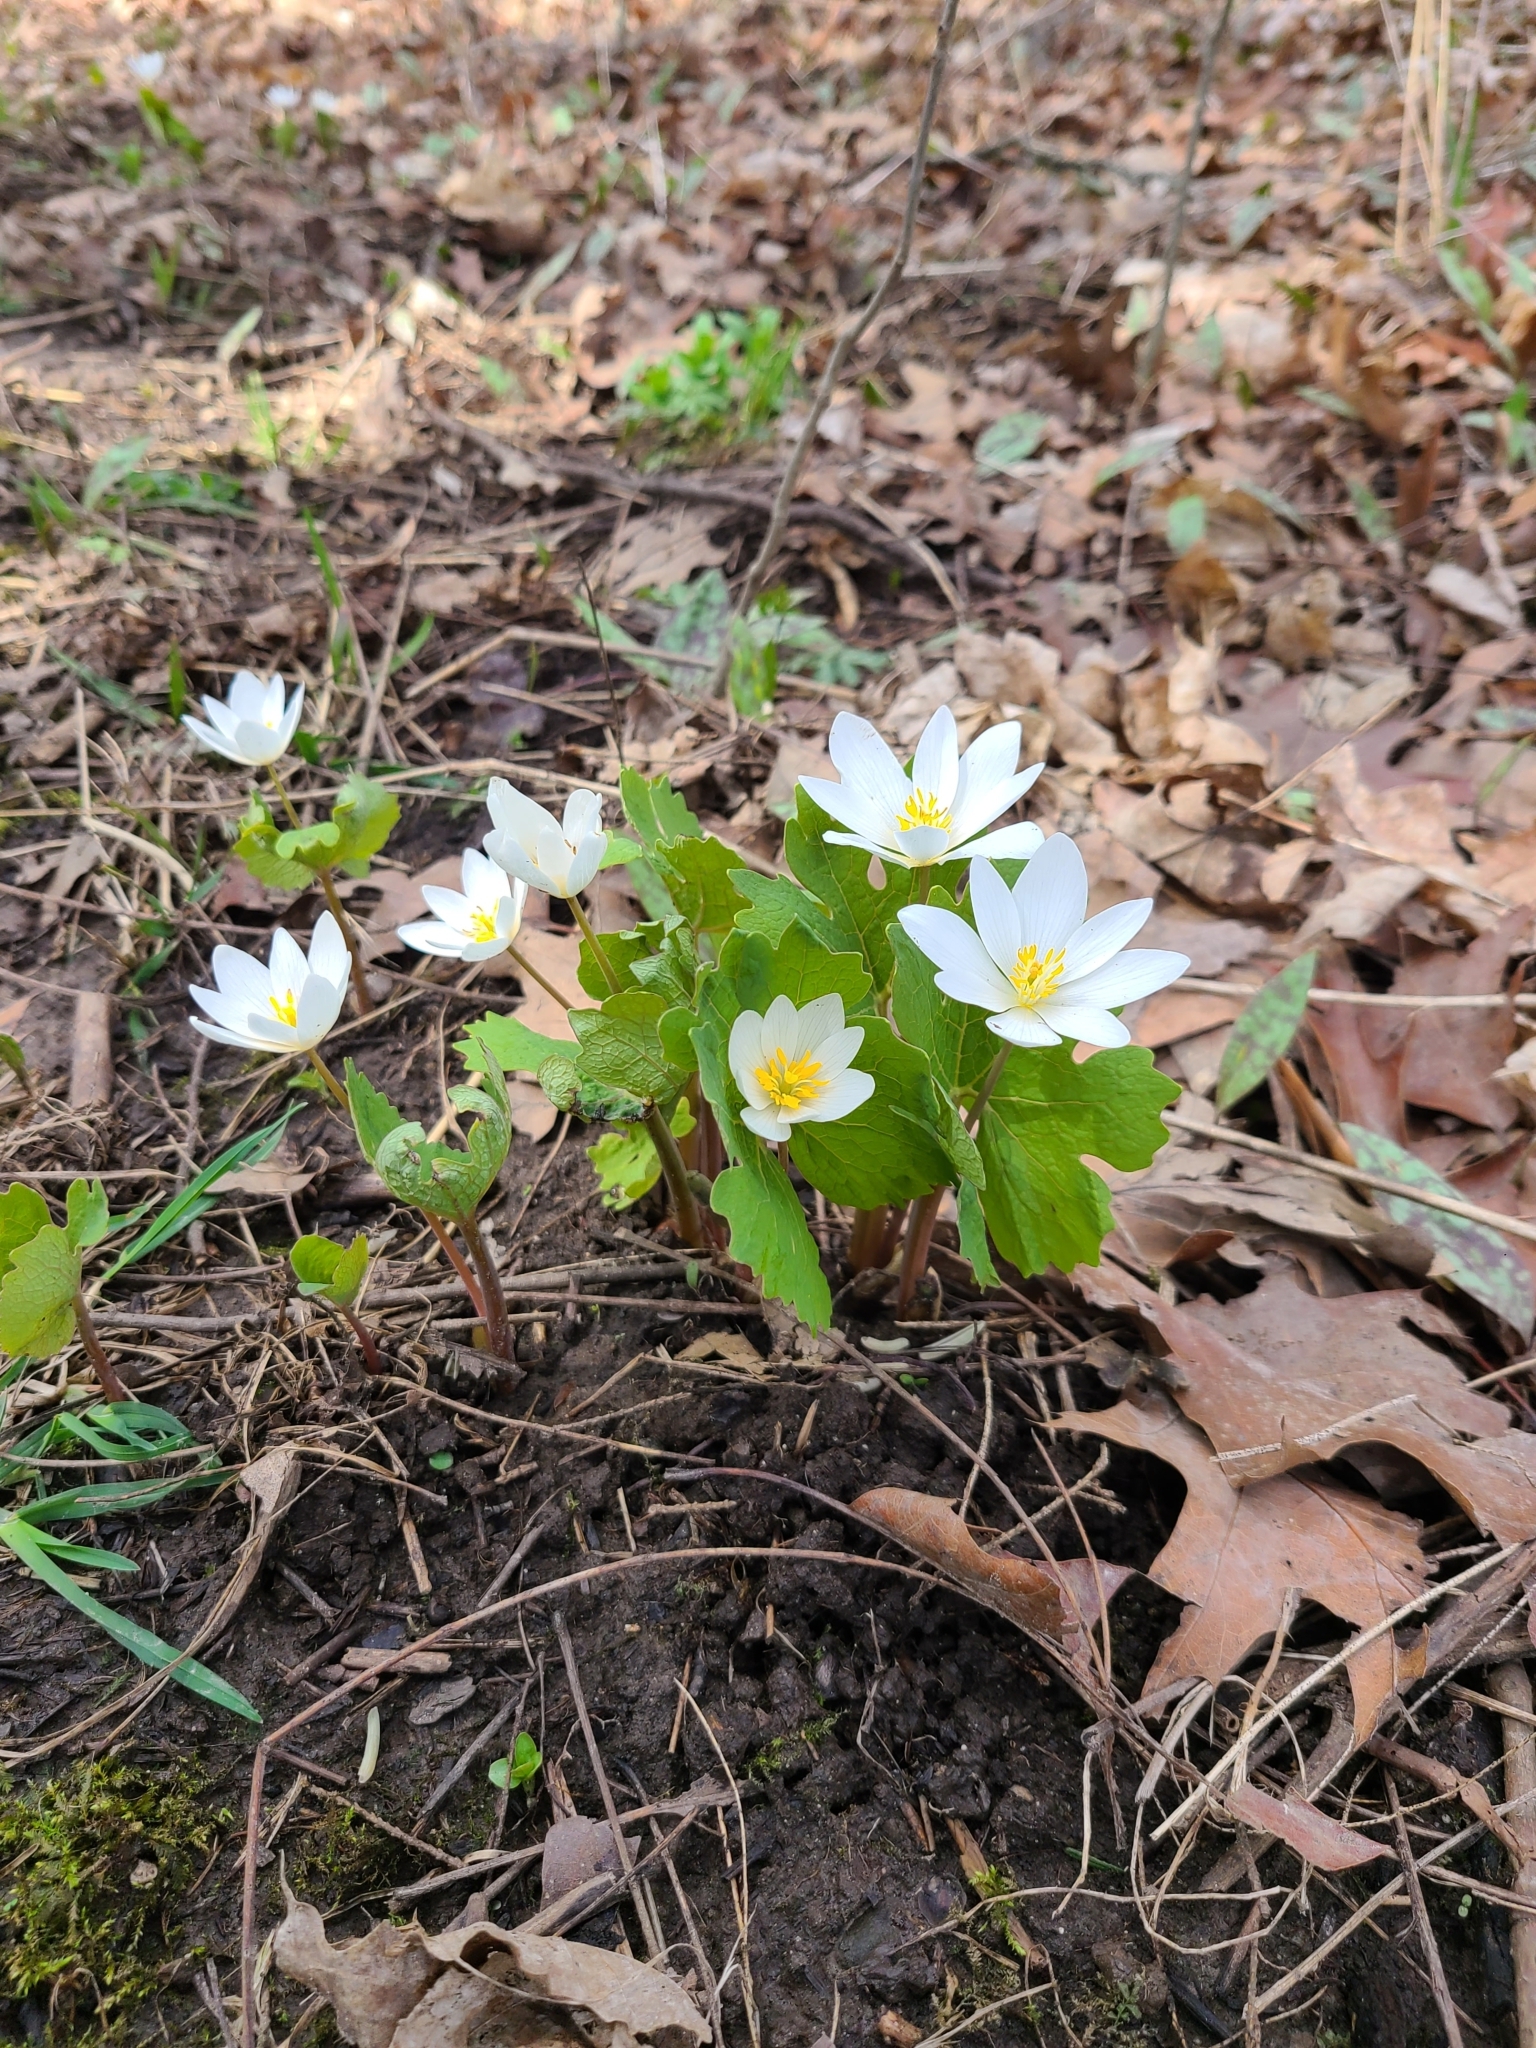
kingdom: Plantae
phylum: Tracheophyta
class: Magnoliopsida
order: Ranunculales
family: Papaveraceae
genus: Sanguinaria
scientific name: Sanguinaria canadensis
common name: Bloodroot
